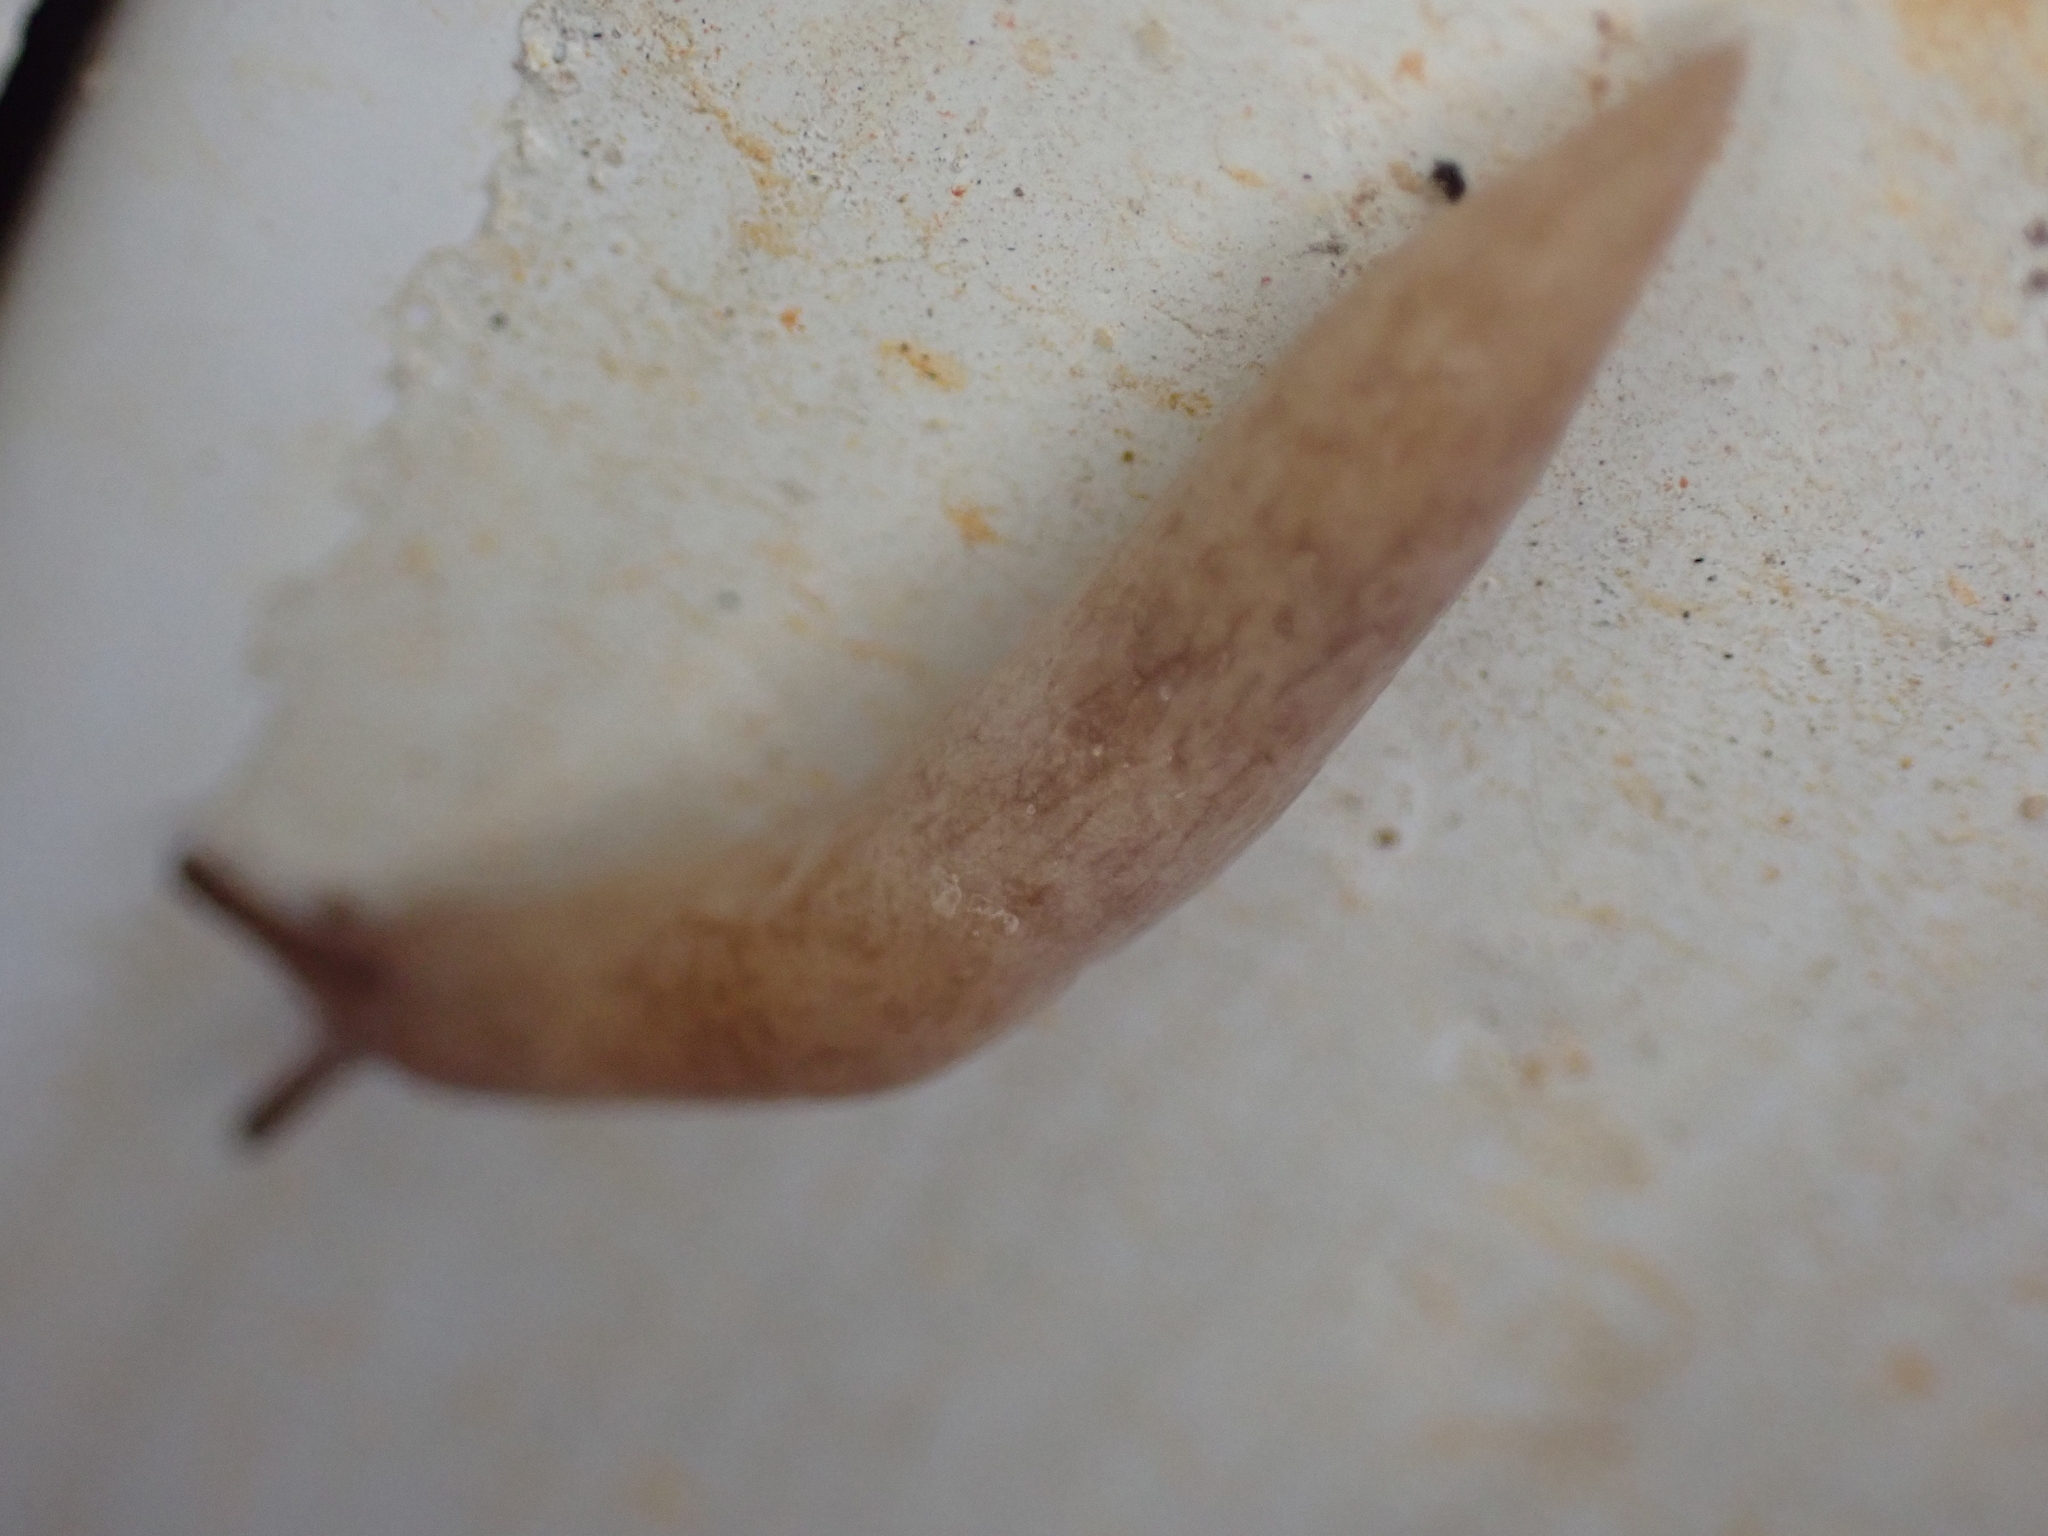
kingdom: Animalia
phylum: Mollusca
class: Gastropoda
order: Stylommatophora
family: Agriolimacidae
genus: Deroceras
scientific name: Deroceras reticulatum
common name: Gray field slug
